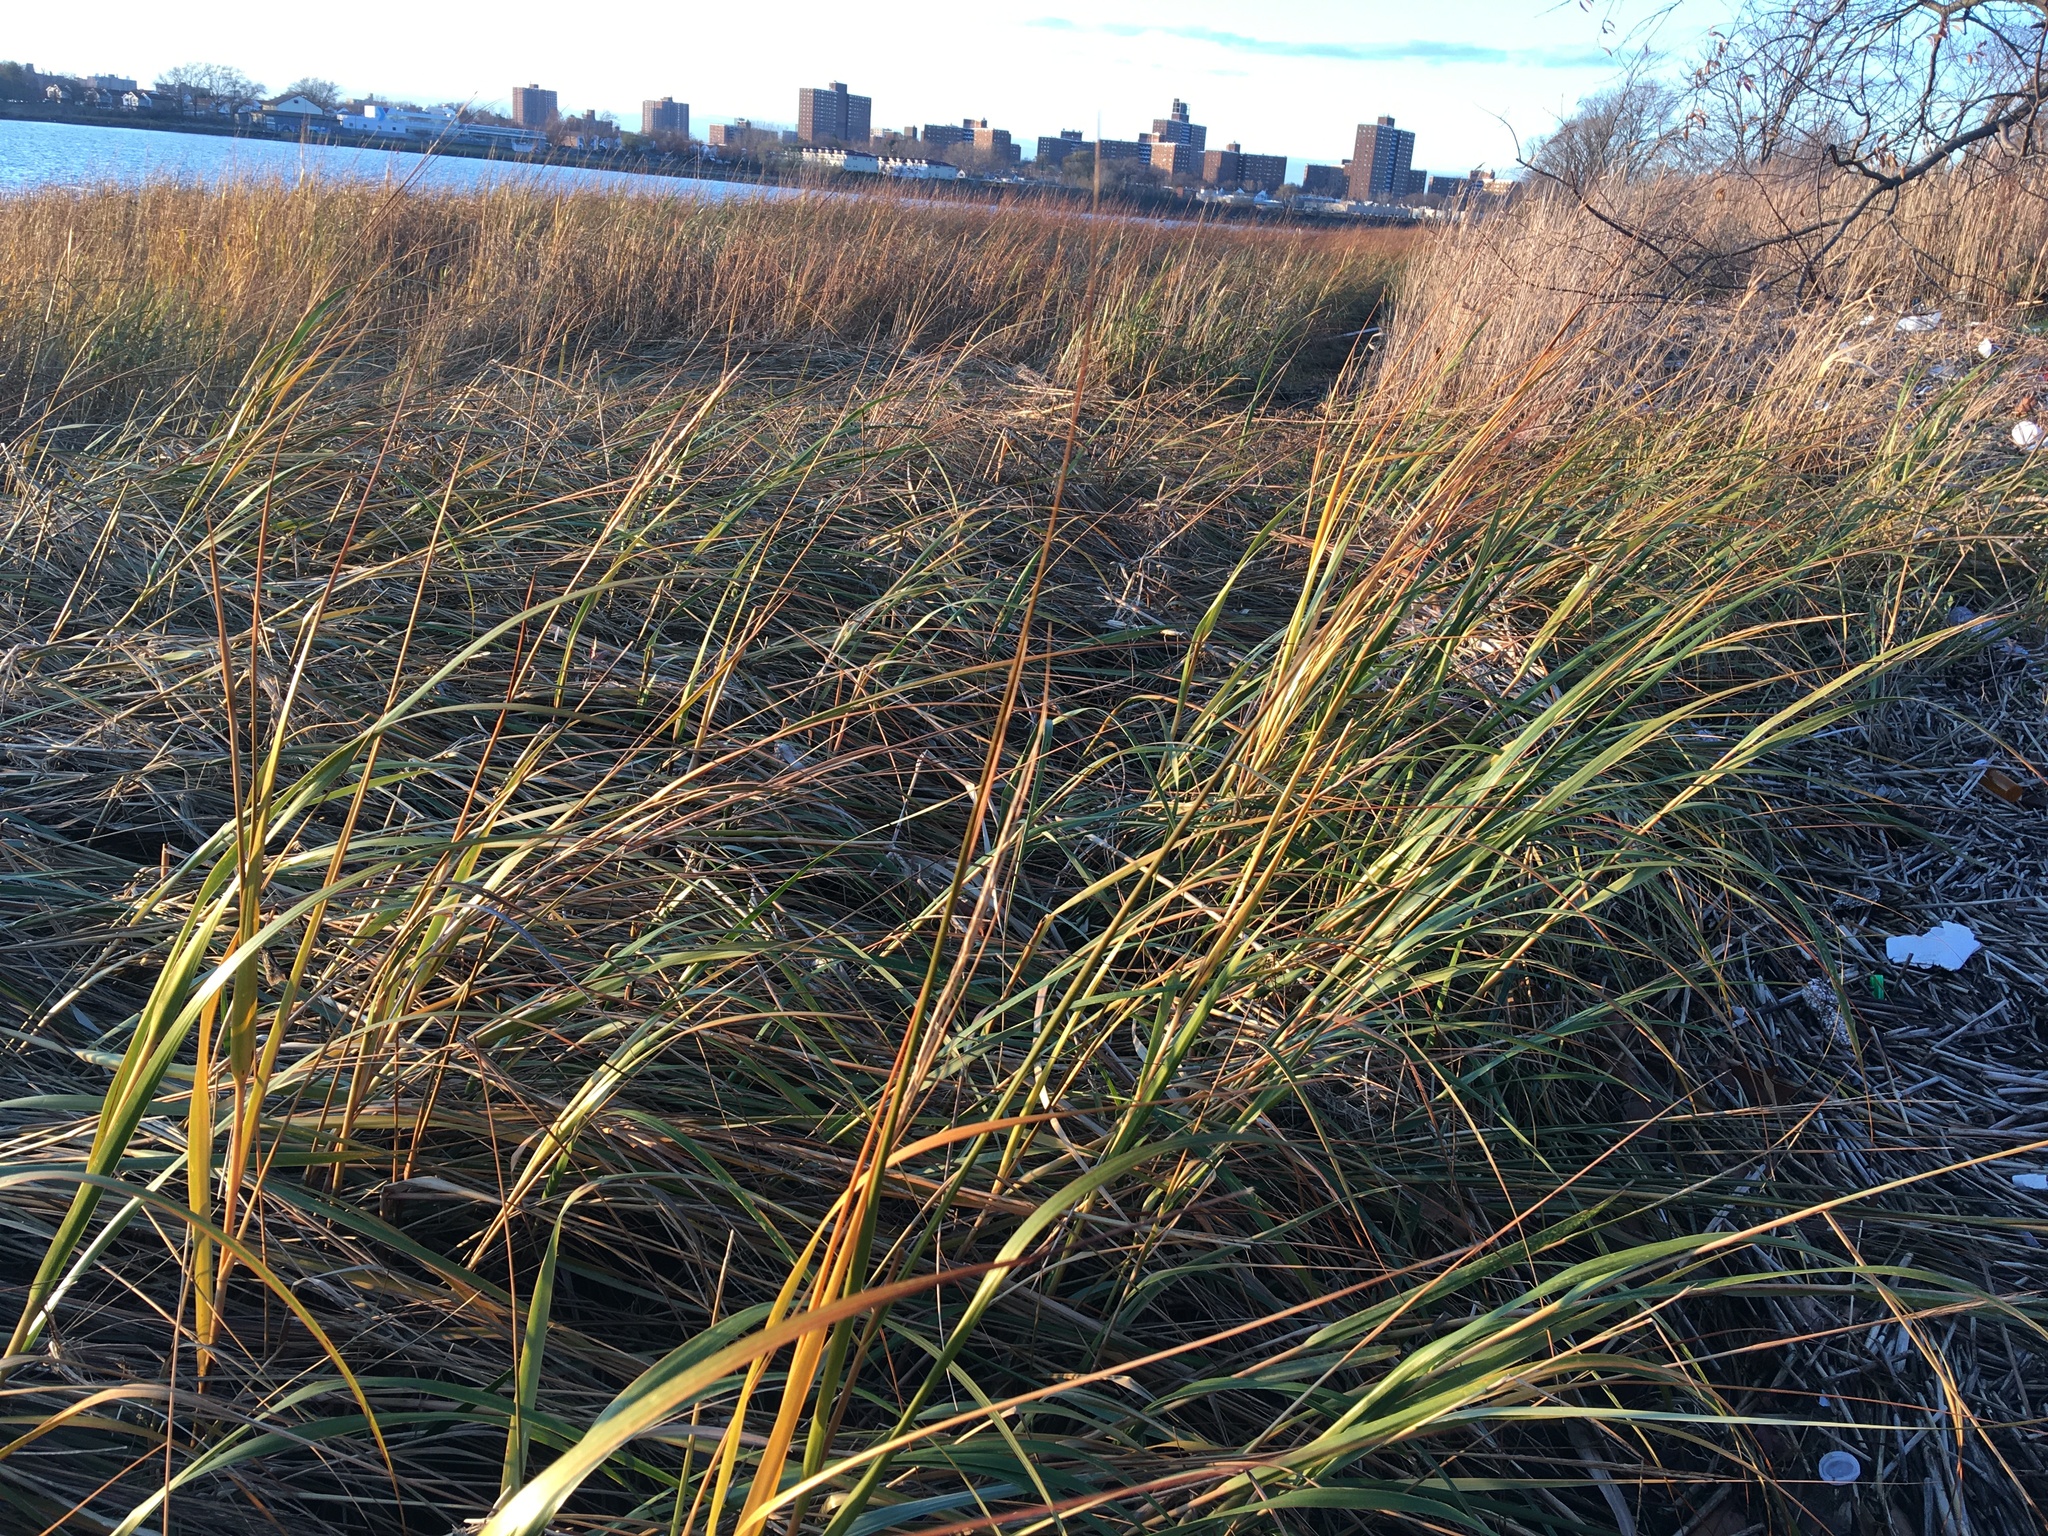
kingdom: Plantae
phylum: Tracheophyta
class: Liliopsida
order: Poales
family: Poaceae
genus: Sporobolus
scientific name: Sporobolus alterniflorus
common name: Atlantic cordgrass
